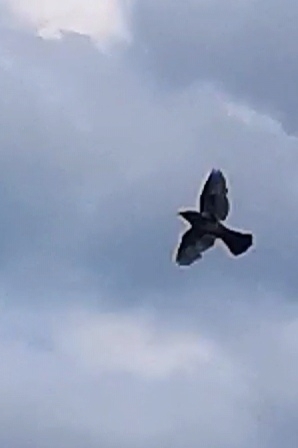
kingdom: Animalia
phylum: Chordata
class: Aves
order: Passeriformes
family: Turdidae
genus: Turdus
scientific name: Turdus pilaris
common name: Fieldfare
